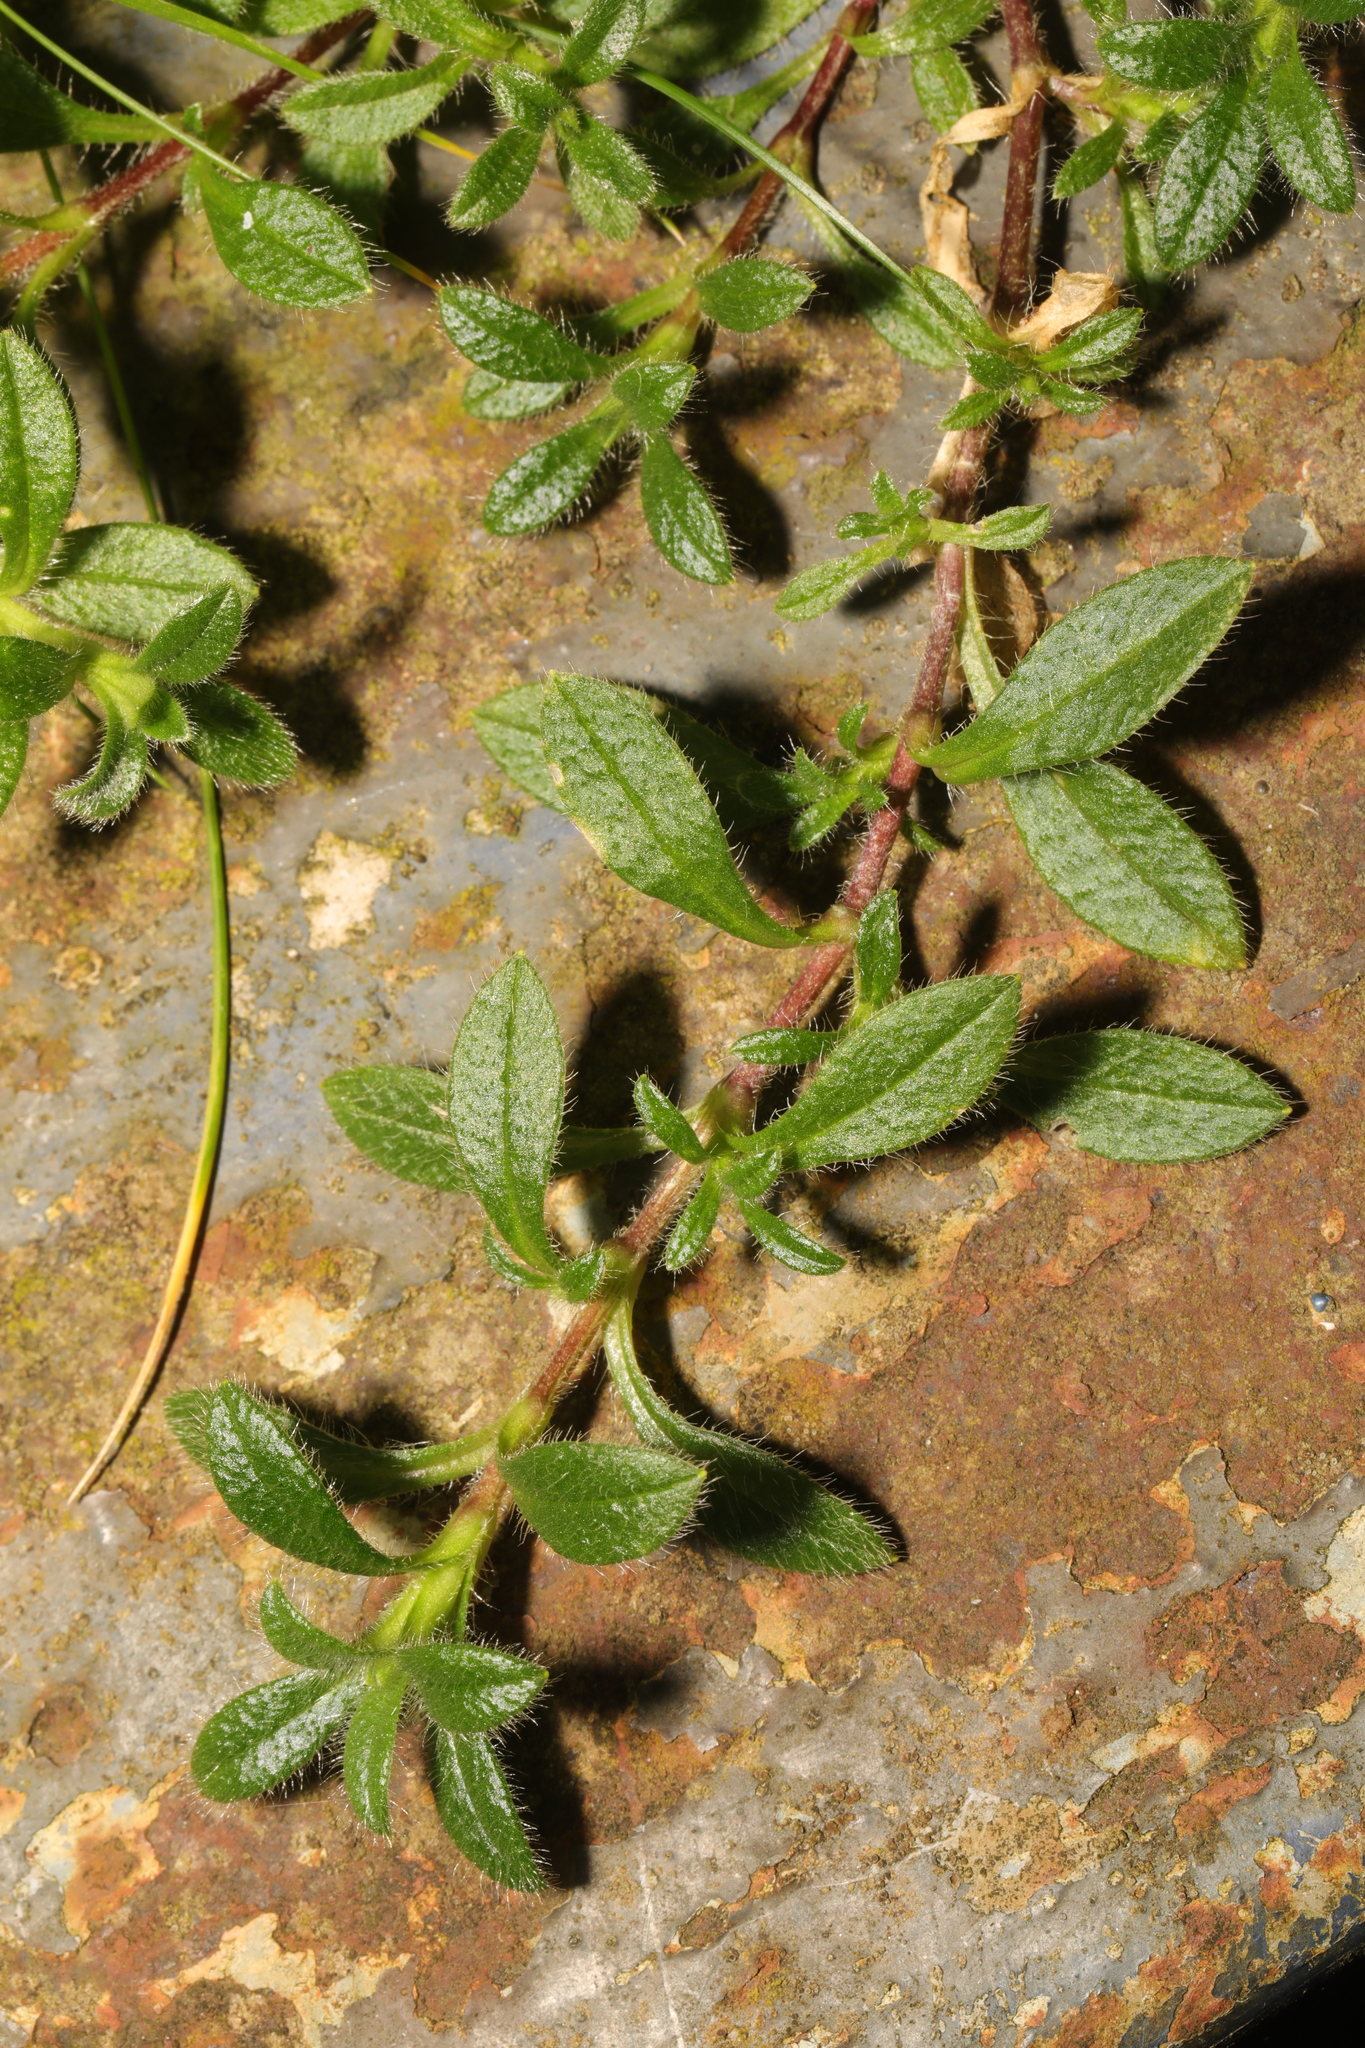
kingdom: Plantae
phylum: Tracheophyta
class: Magnoliopsida
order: Caryophyllales
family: Caryophyllaceae
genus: Cerastium
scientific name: Cerastium fontanum
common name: Common mouse-ear
